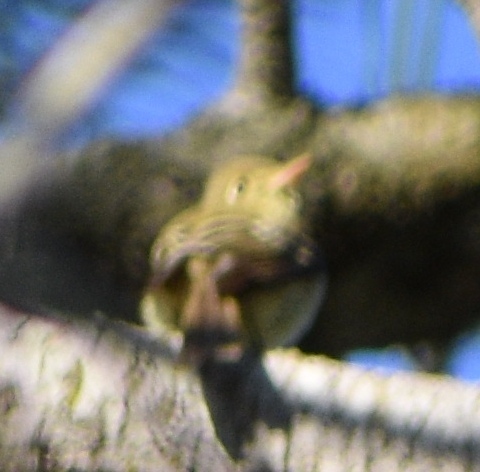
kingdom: Animalia
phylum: Chordata
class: Aves
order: Passeriformes
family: Tyrannidae
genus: Empidonax
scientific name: Empidonax difficilis
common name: Pacific-slope flycatcher
